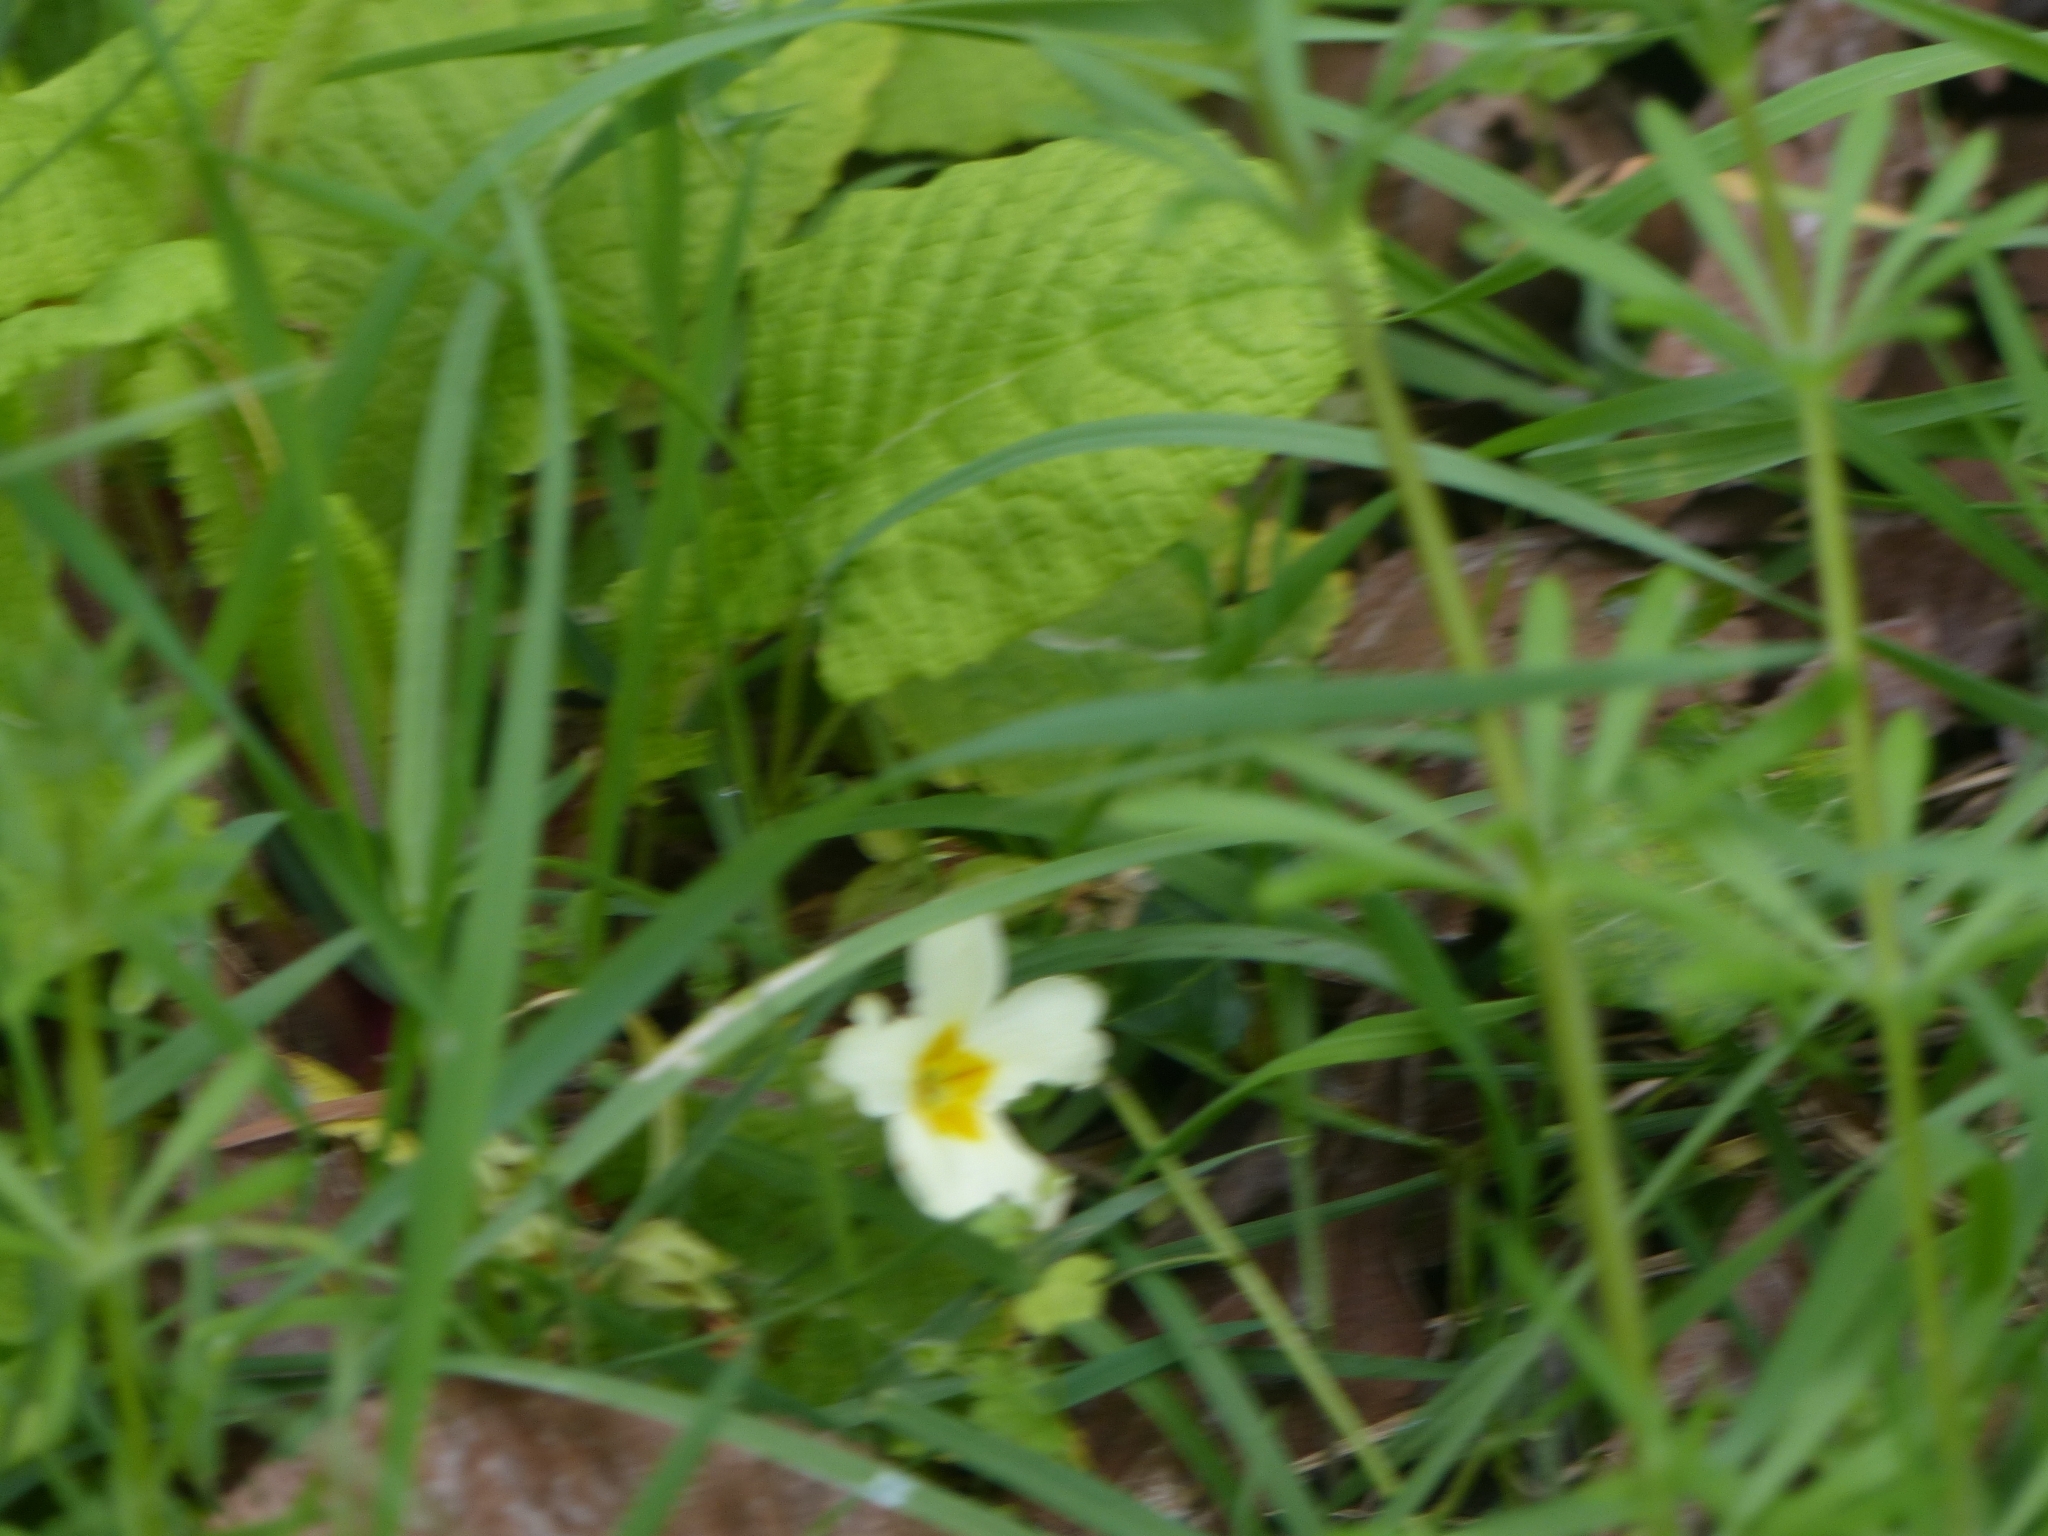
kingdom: Plantae
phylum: Tracheophyta
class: Magnoliopsida
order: Ericales
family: Primulaceae
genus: Primula
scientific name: Primula vulgaris
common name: Primrose
